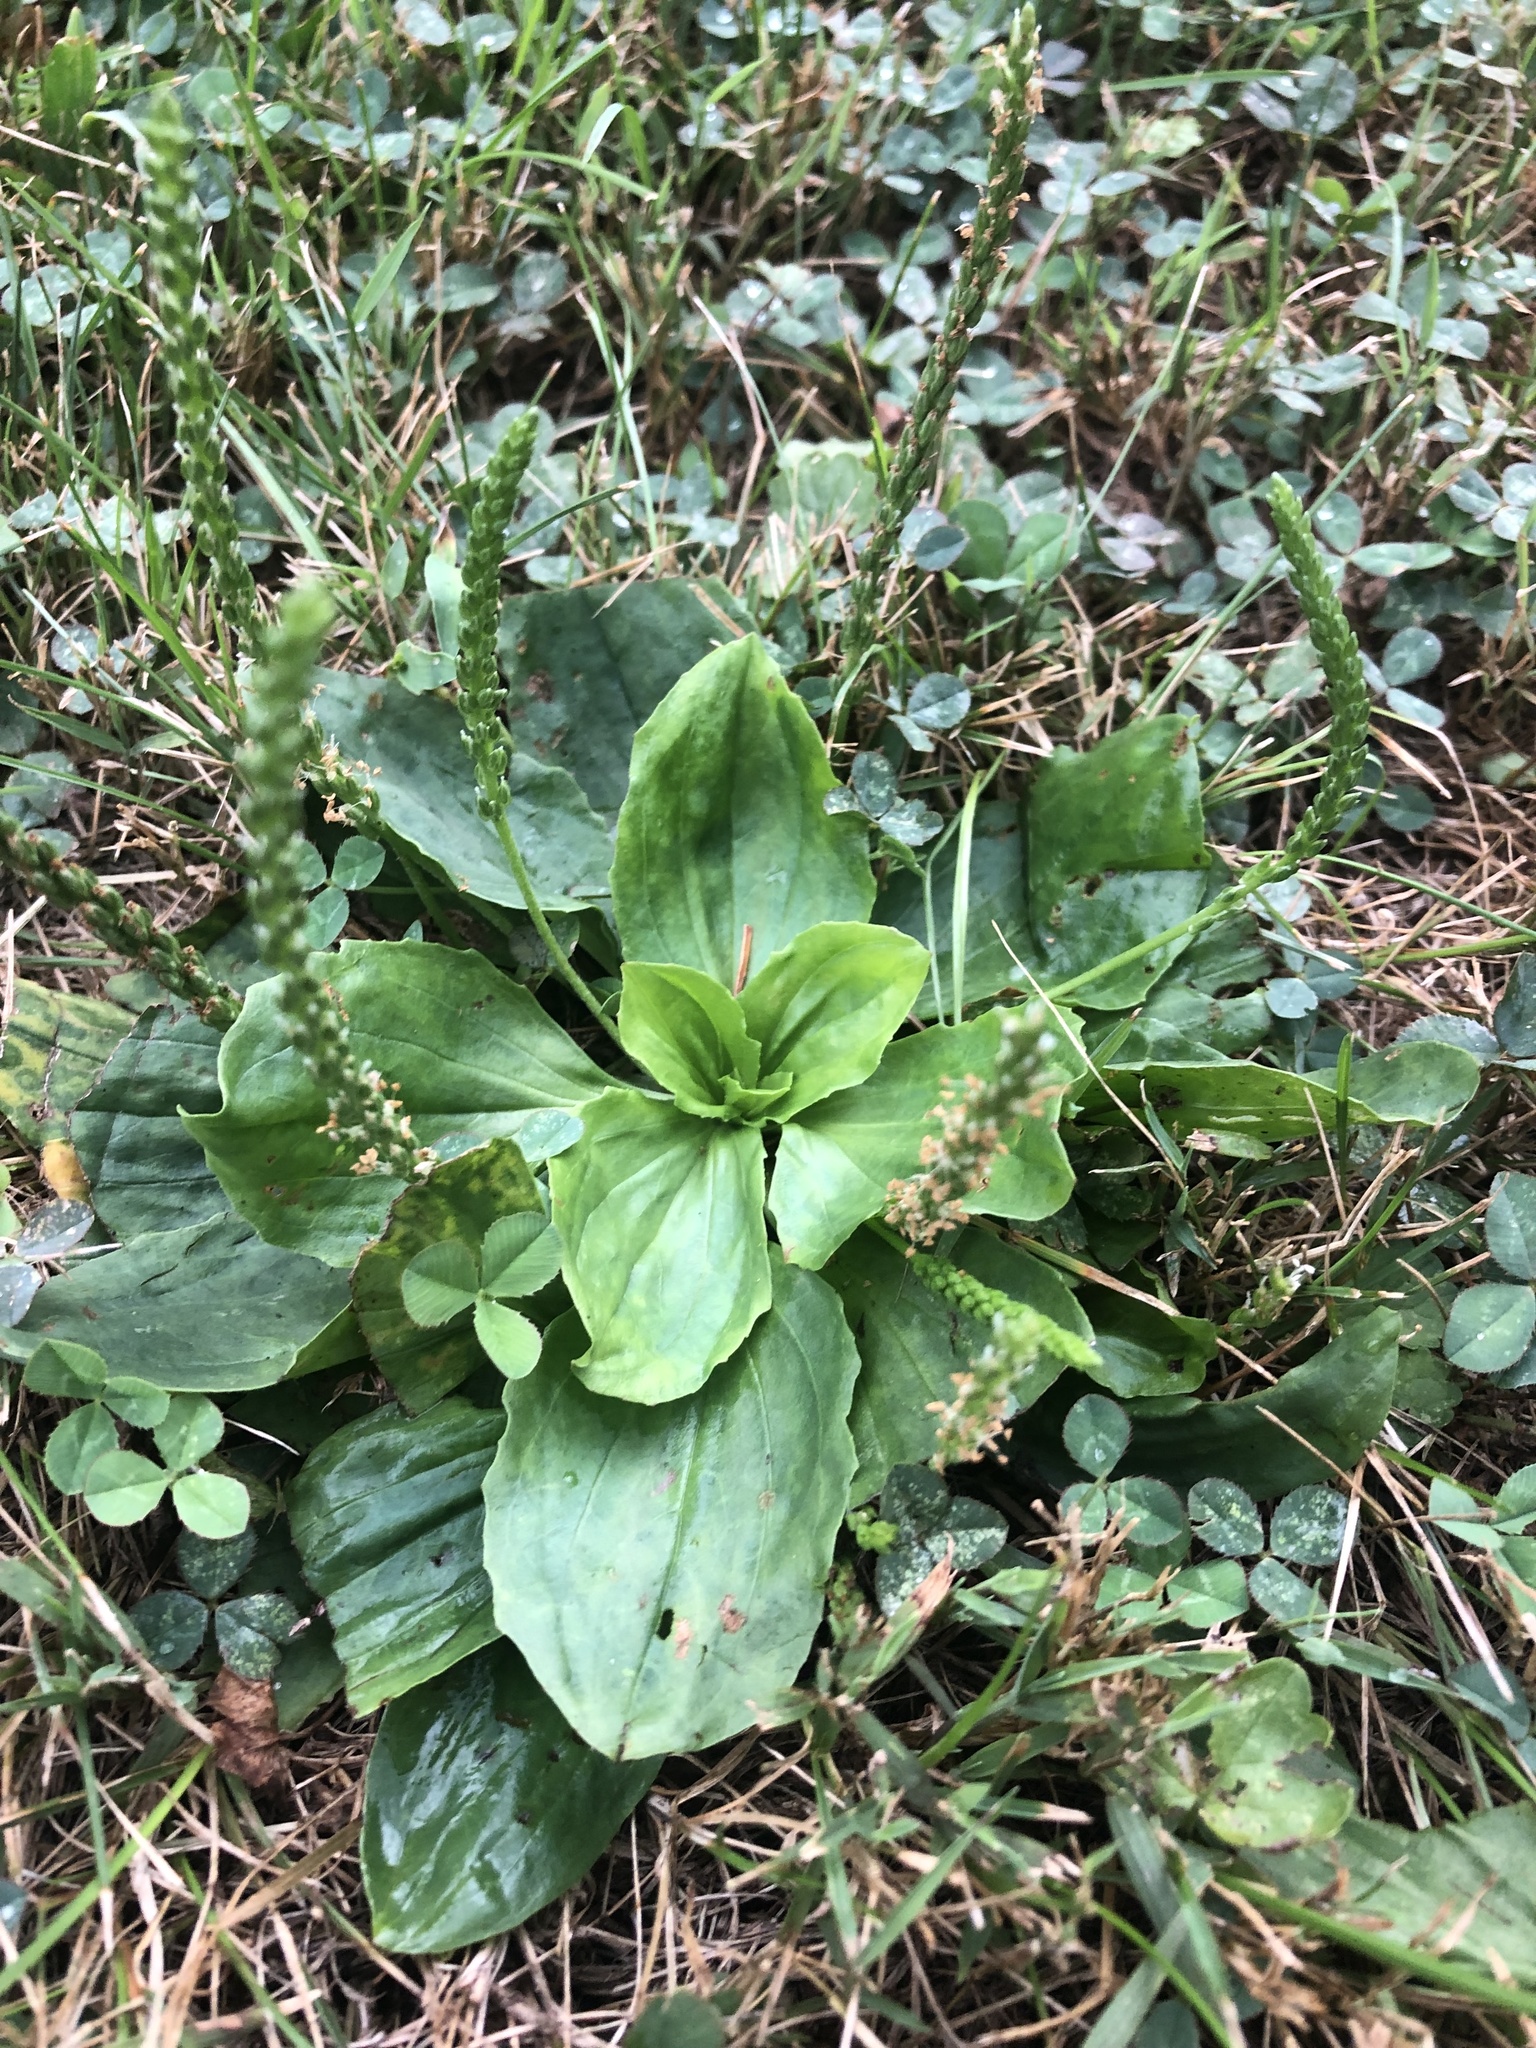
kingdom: Plantae
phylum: Tracheophyta
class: Magnoliopsida
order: Lamiales
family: Plantaginaceae
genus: Plantago
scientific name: Plantago rugelii
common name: American plantain
